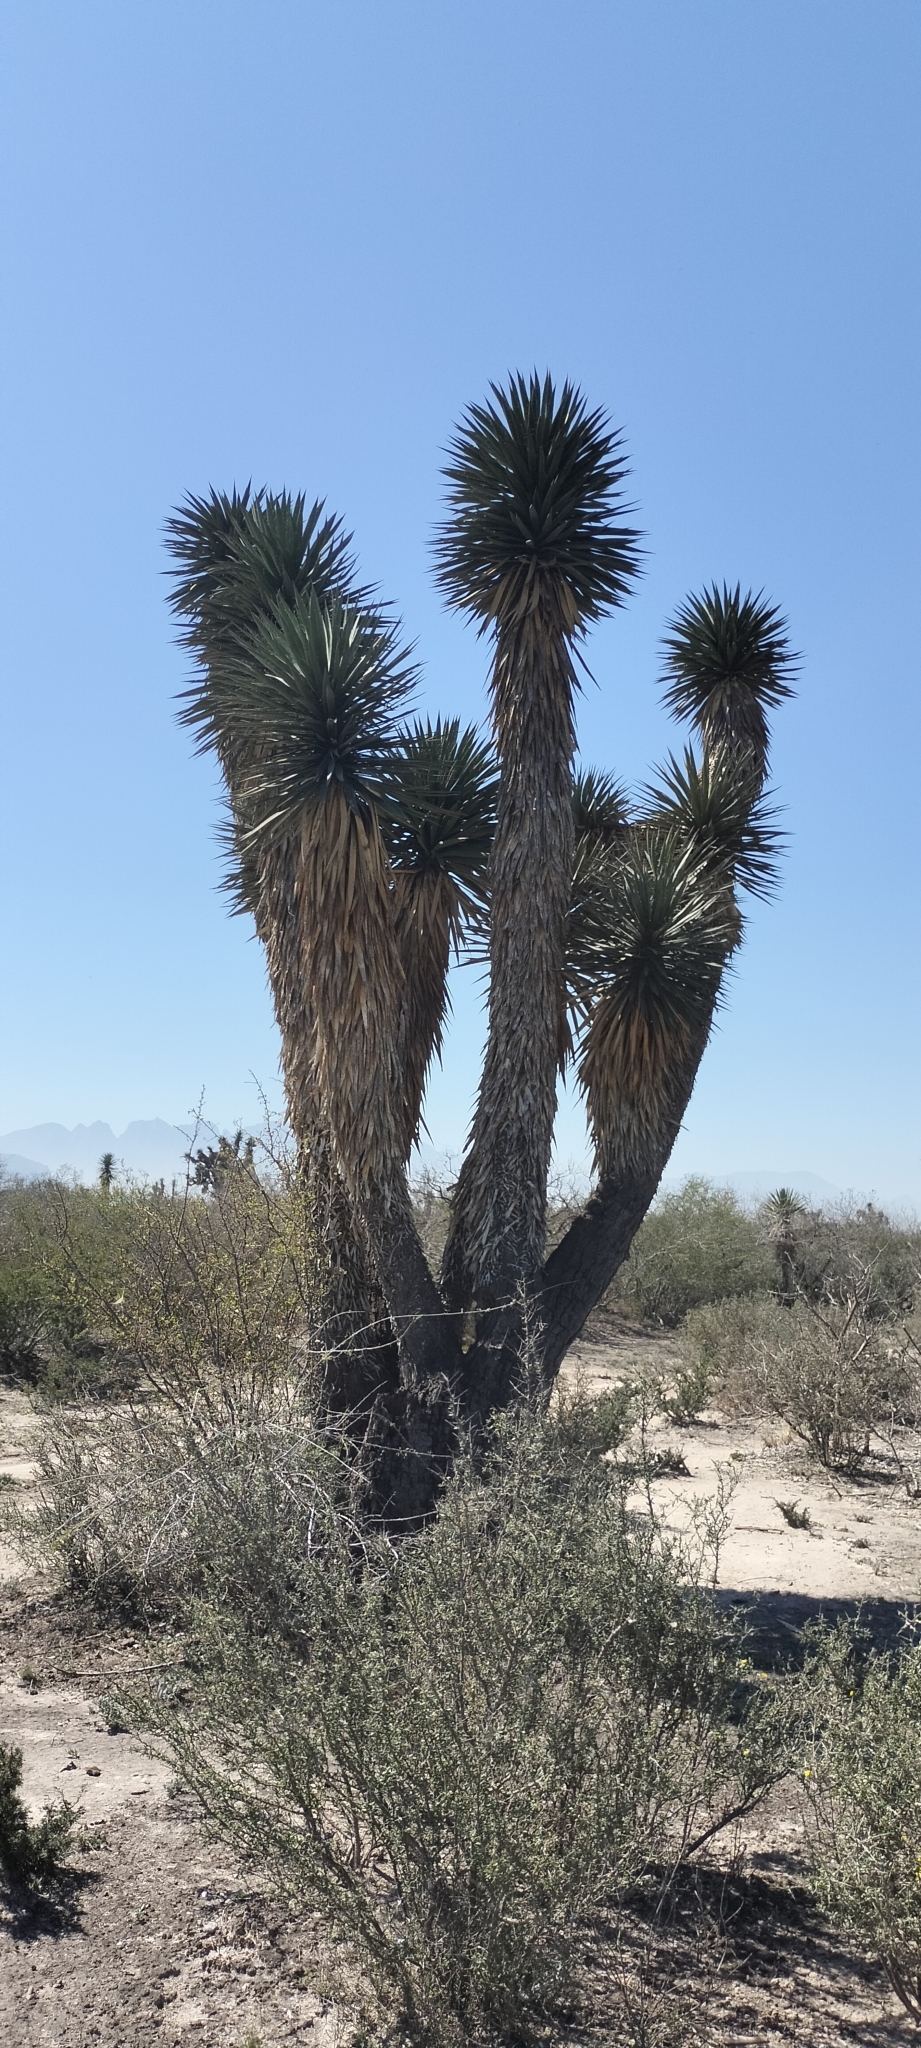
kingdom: Plantae
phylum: Tracheophyta
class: Liliopsida
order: Asparagales
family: Asparagaceae
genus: Yucca
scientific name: Yucca filifera
